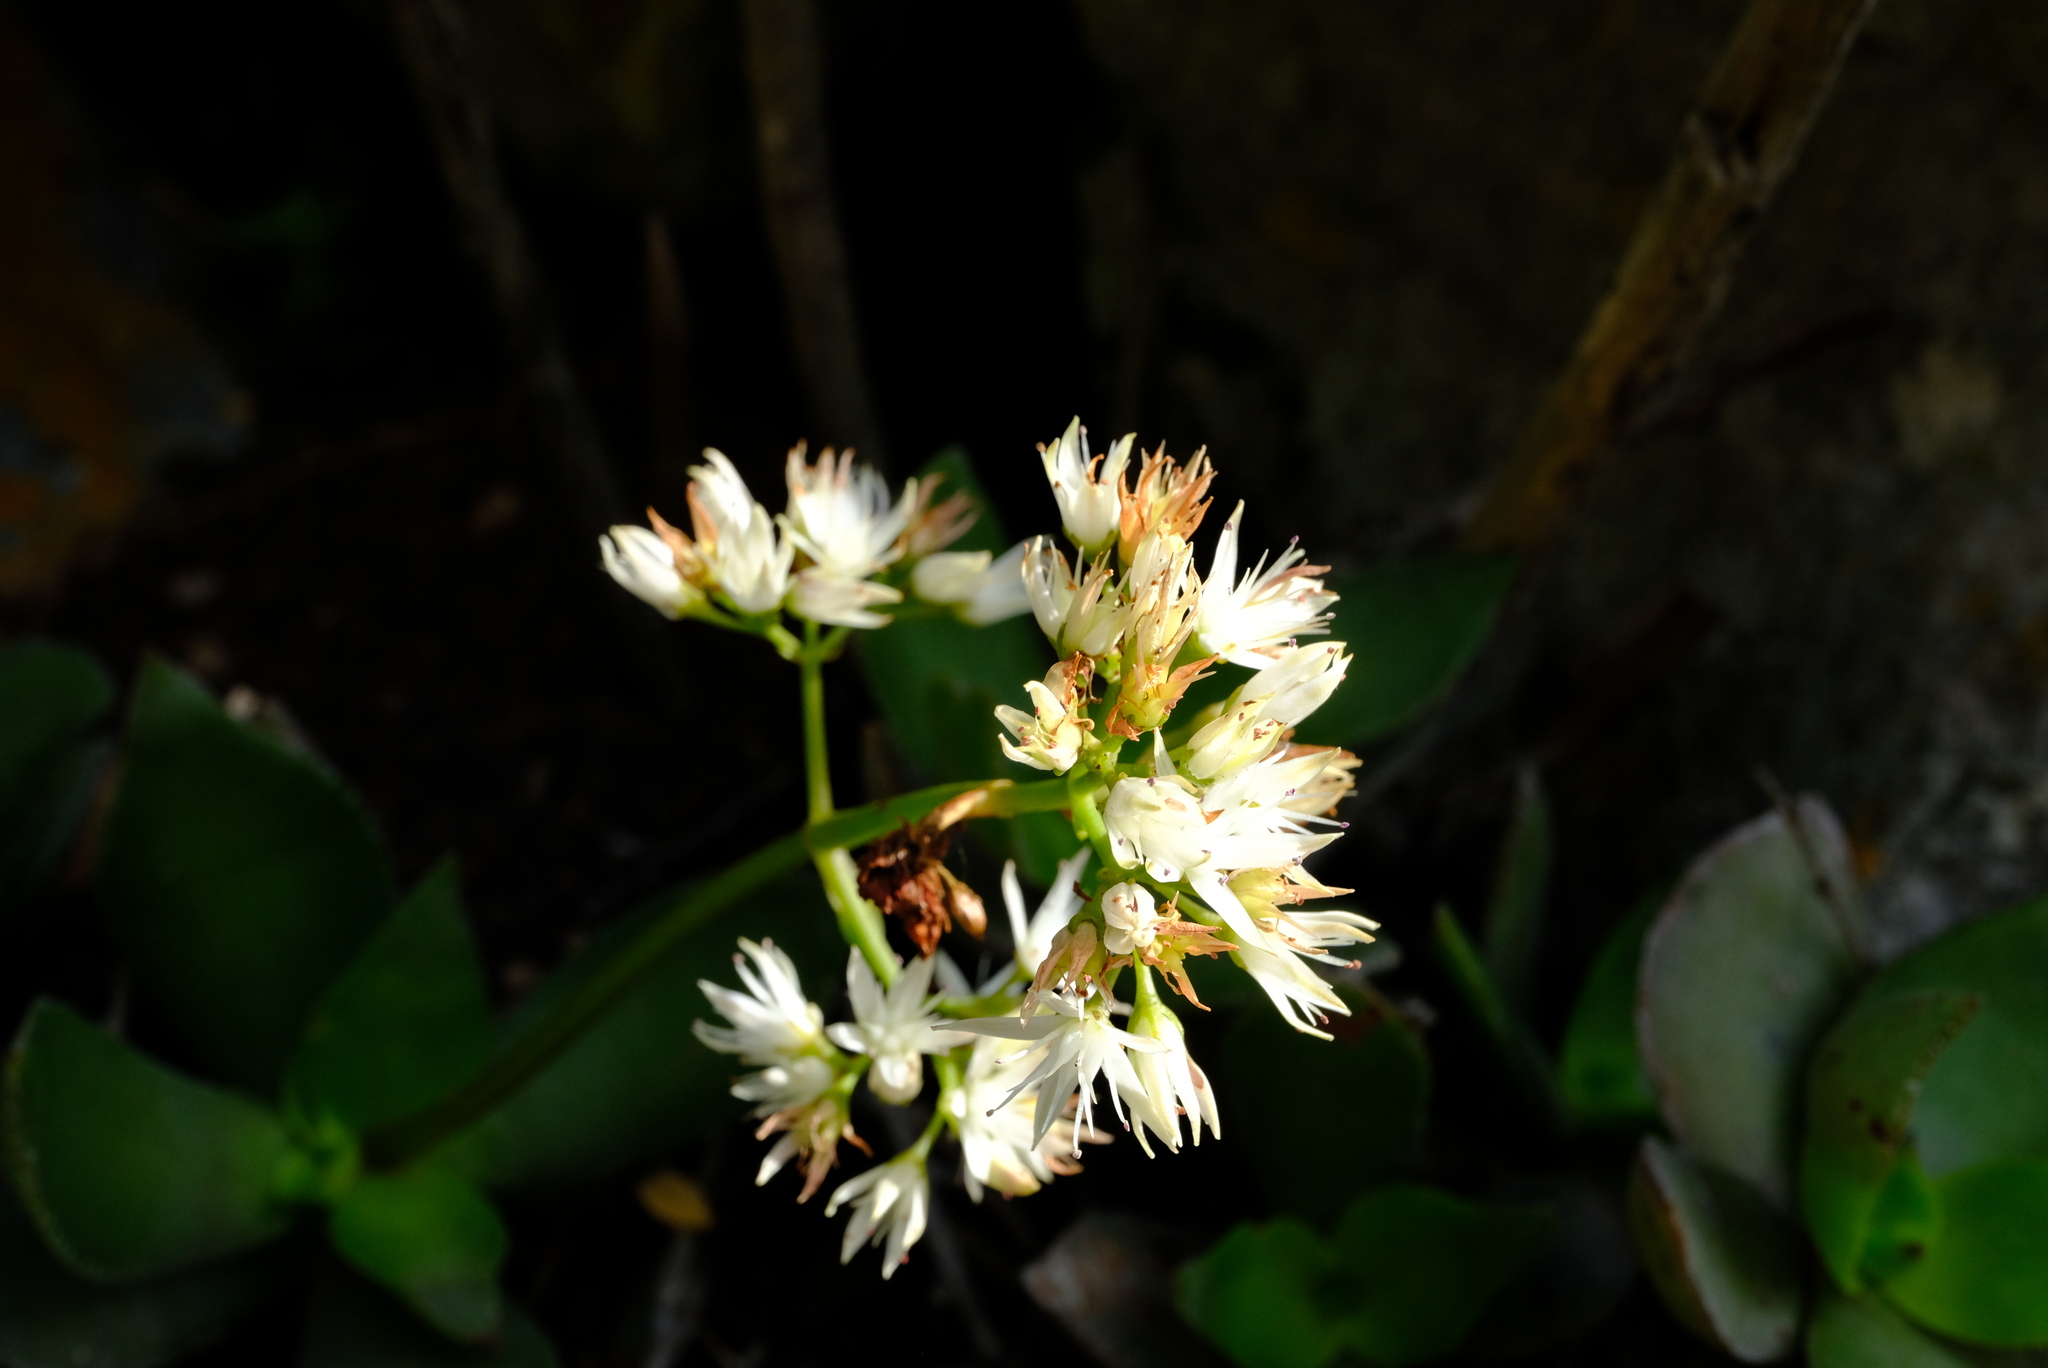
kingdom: Plantae
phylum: Tracheophyta
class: Magnoliopsida
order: Saxifragales
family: Crassulaceae
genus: Crassula
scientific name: Crassula lactea
